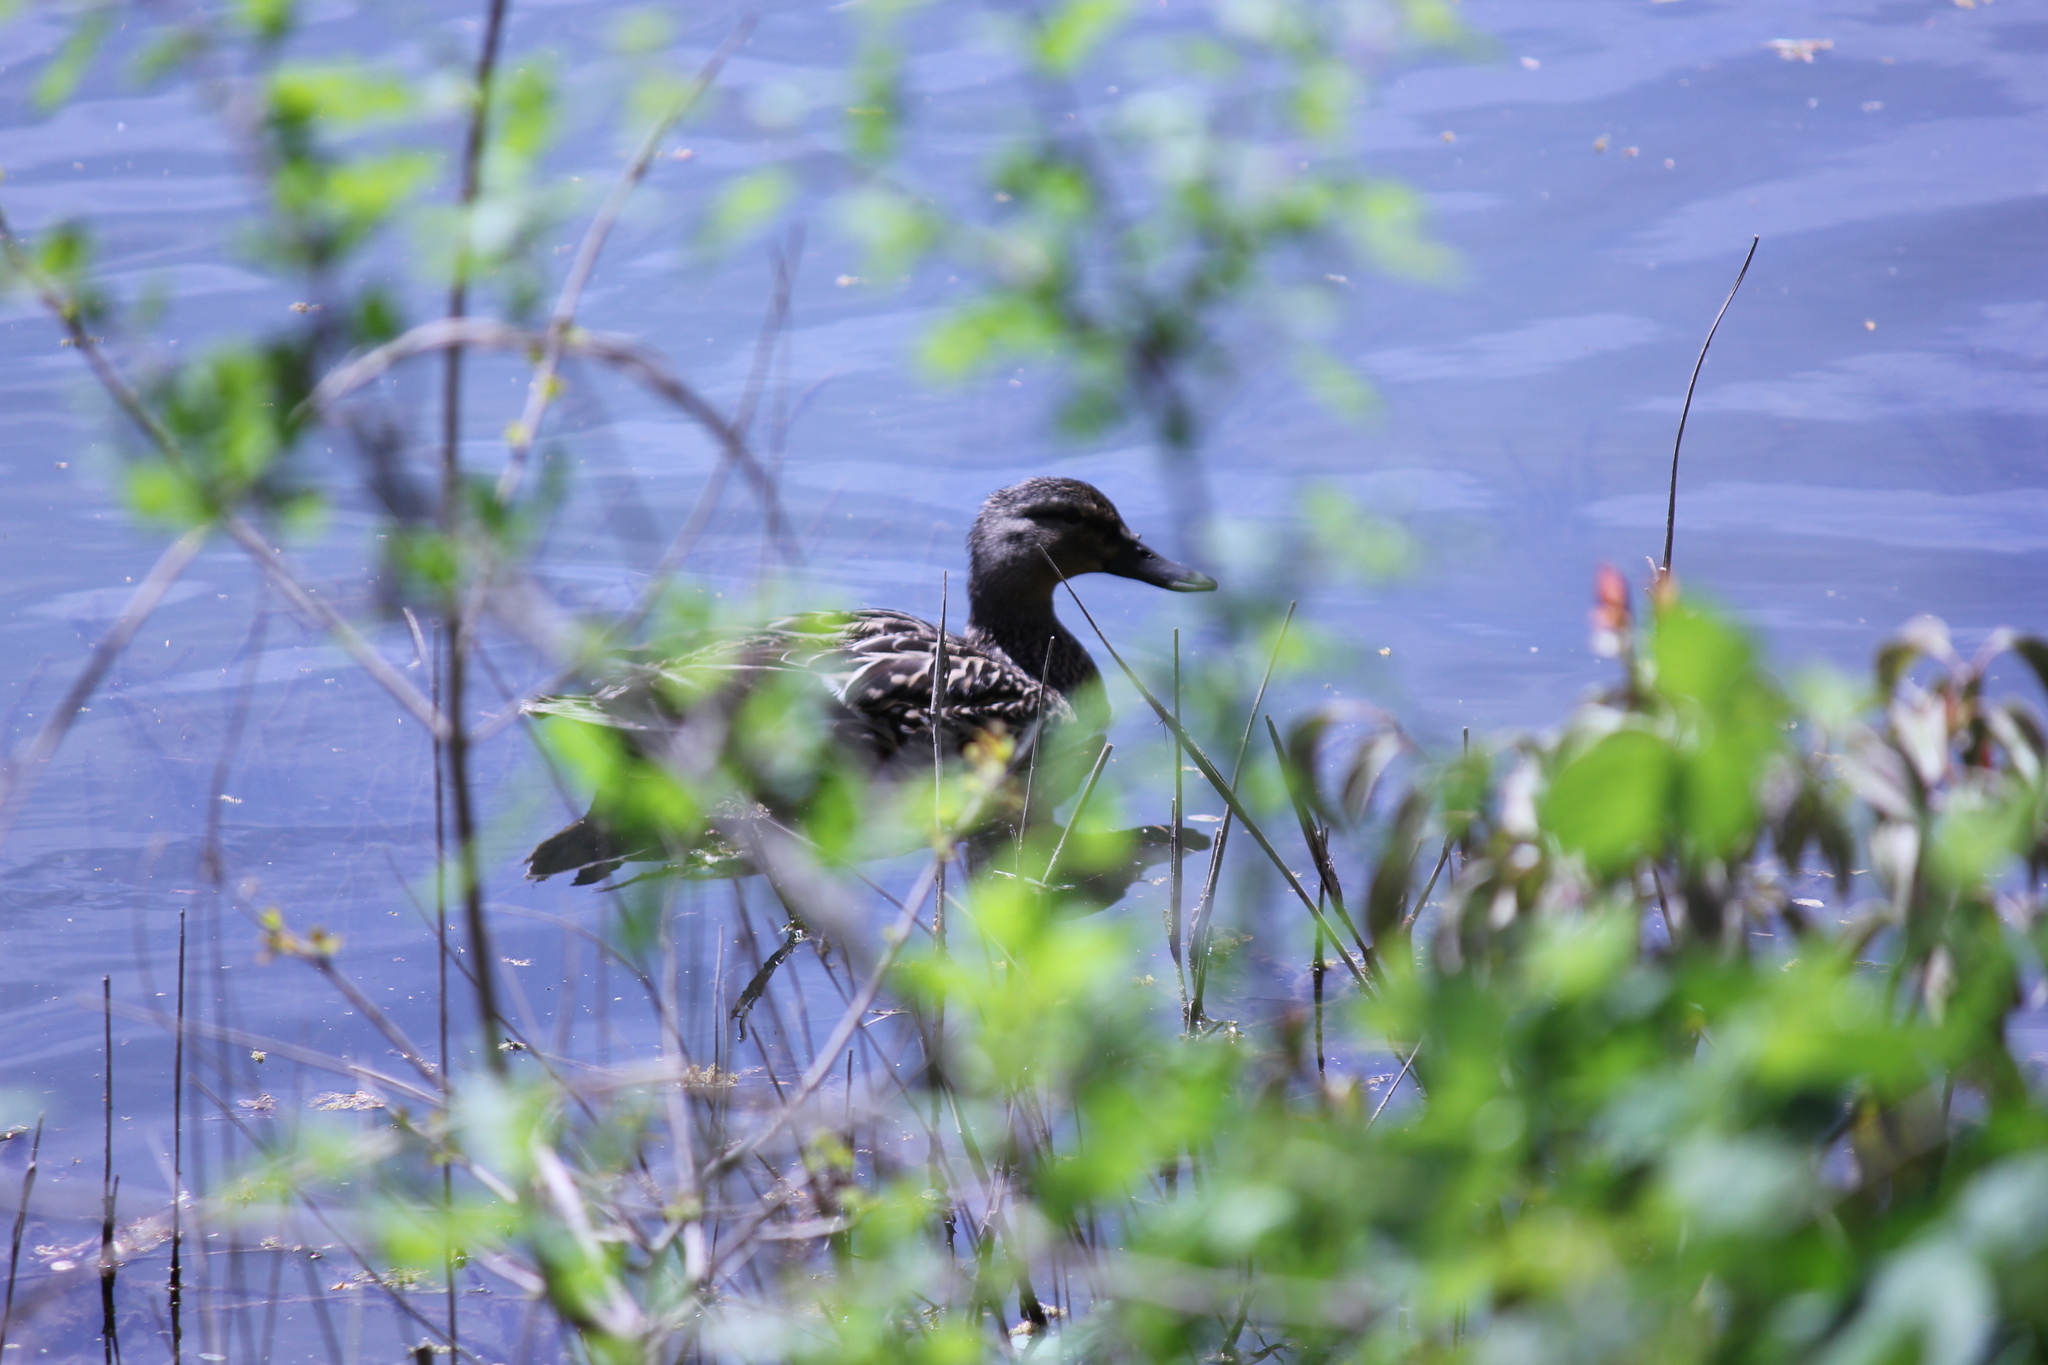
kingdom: Animalia
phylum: Chordata
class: Aves
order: Anseriformes
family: Anatidae
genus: Anas
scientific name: Anas platyrhynchos
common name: Mallard
